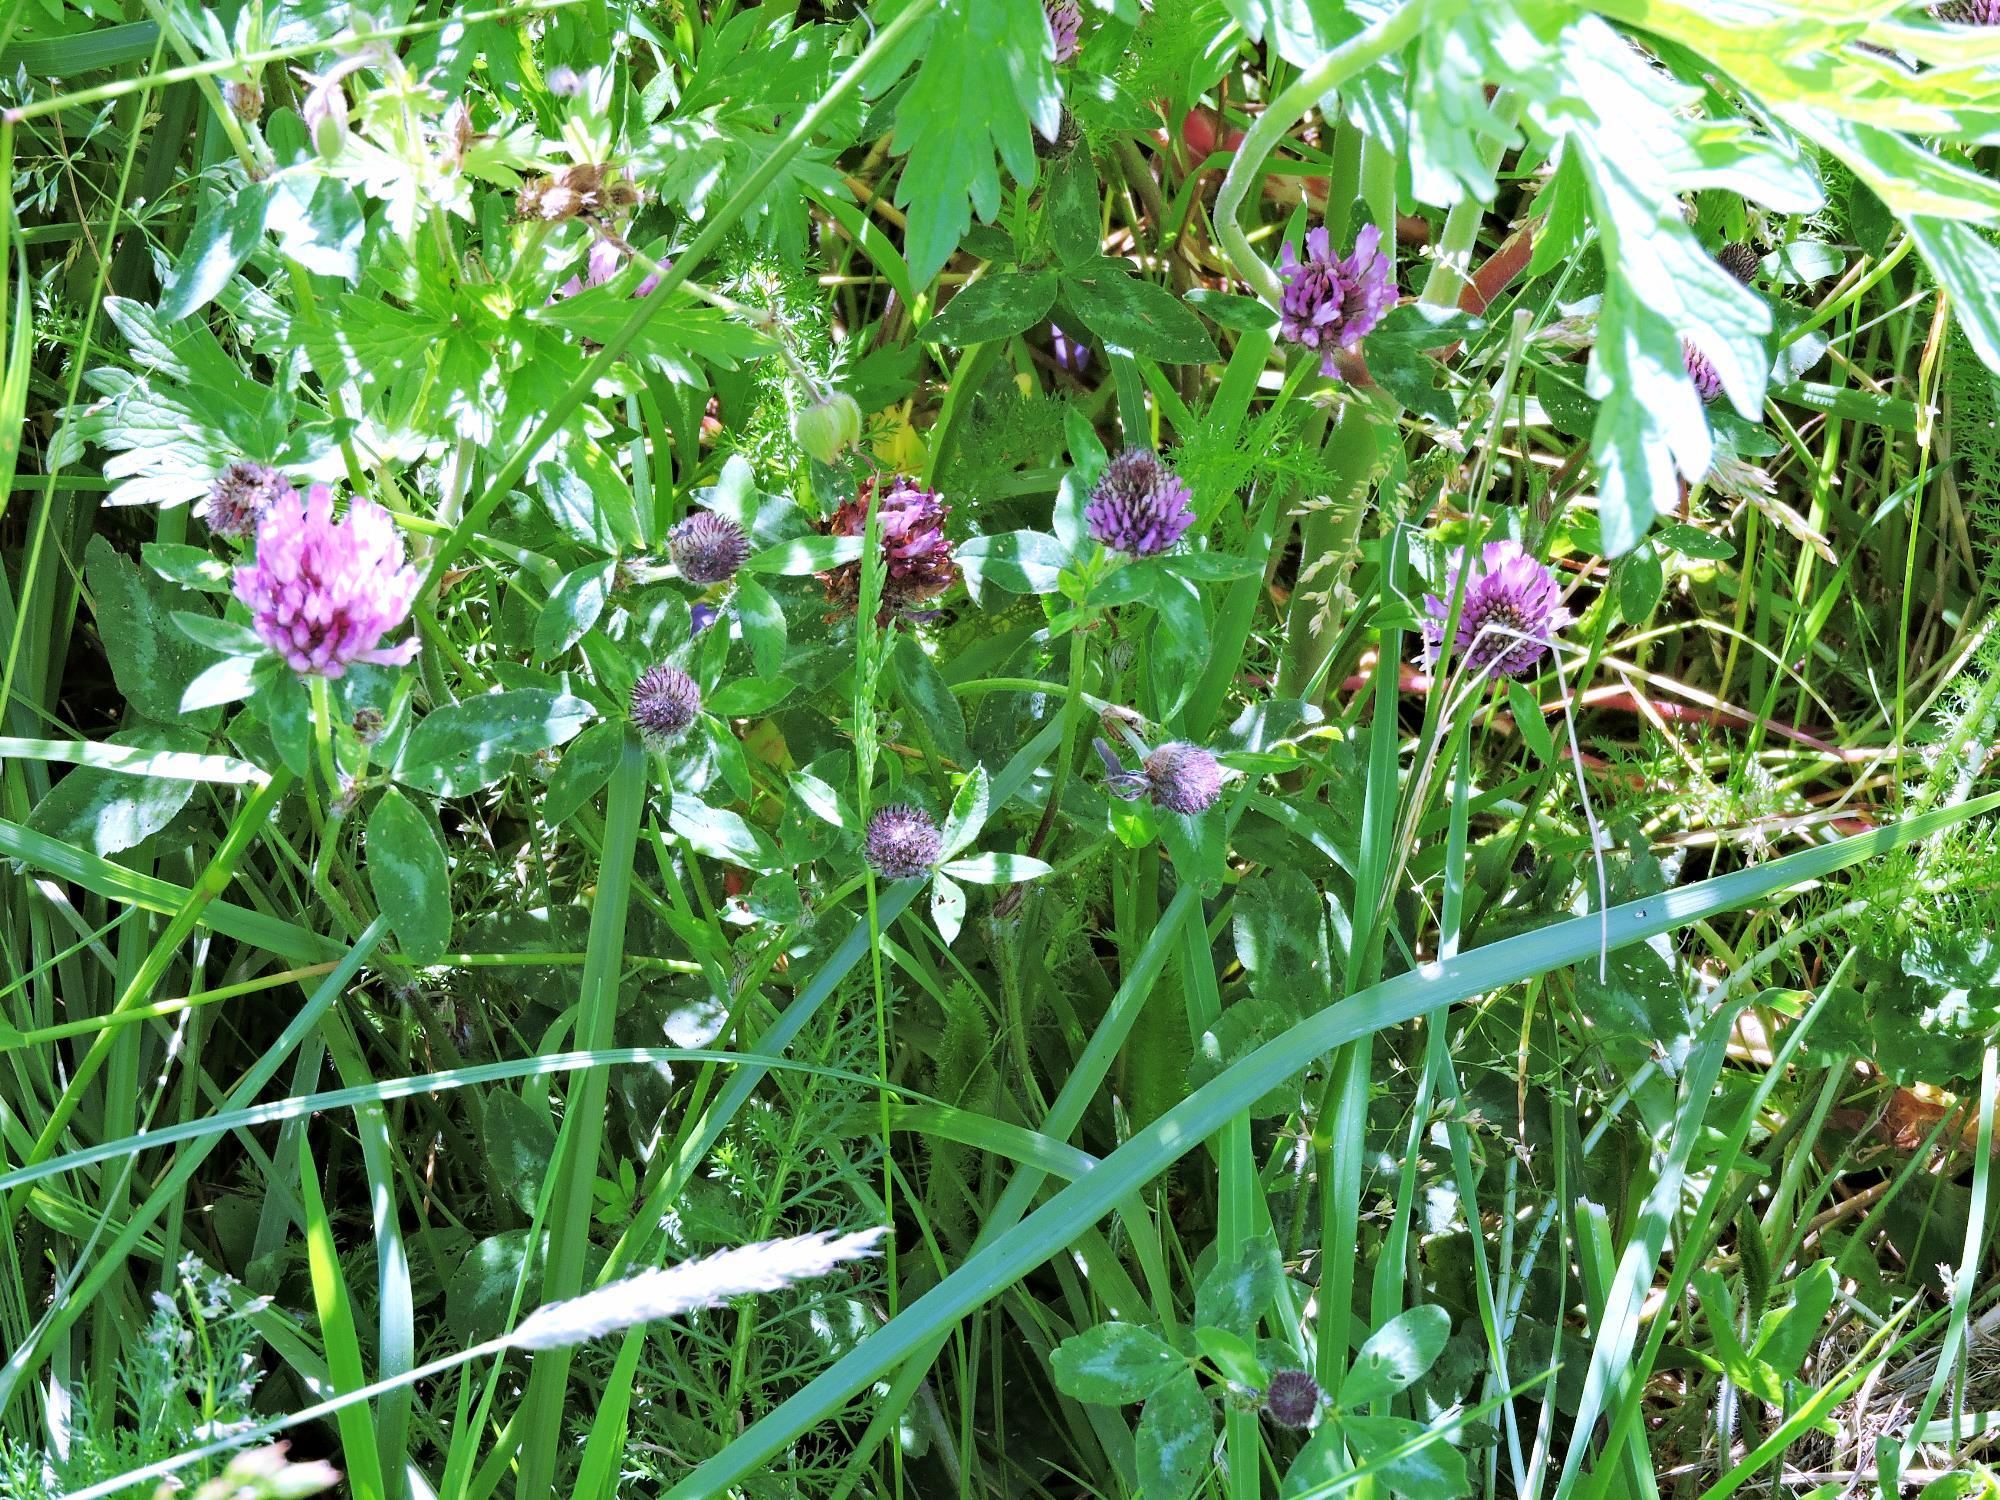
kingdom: Plantae
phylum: Tracheophyta
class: Magnoliopsida
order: Fabales
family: Fabaceae
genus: Trifolium
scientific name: Trifolium pratense
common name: Red clover
